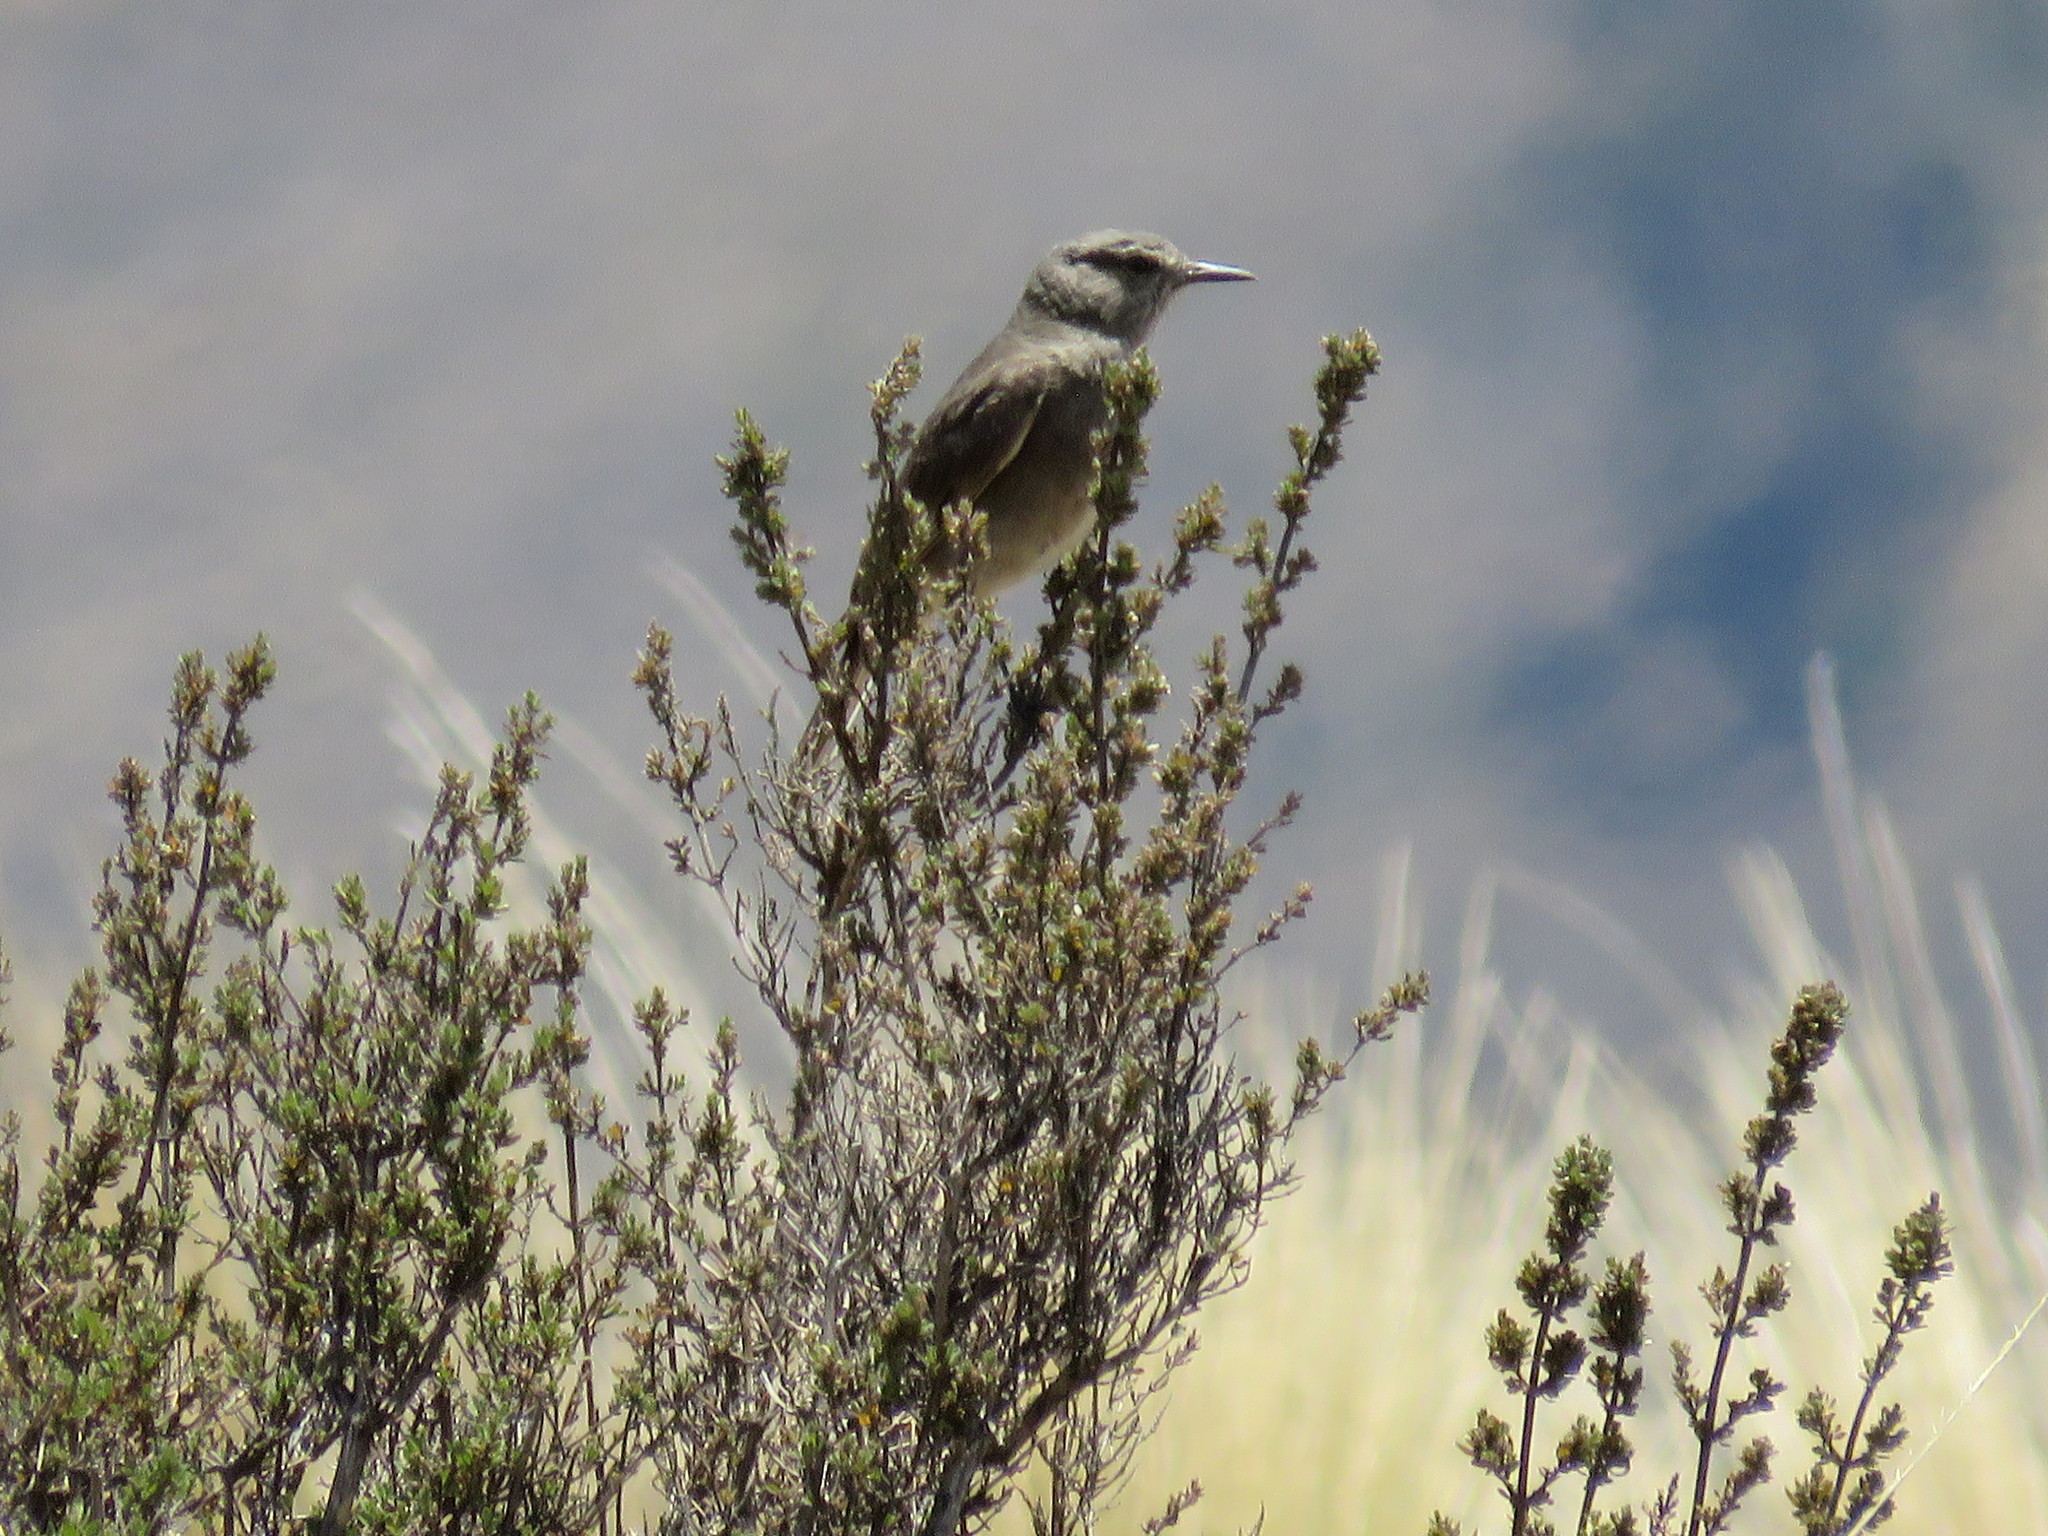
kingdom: Animalia
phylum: Chordata
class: Aves
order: Passeriformes
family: Tyrannidae
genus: Agriornis
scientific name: Agriornis montanus
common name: Black-billed shrike-tyrant
